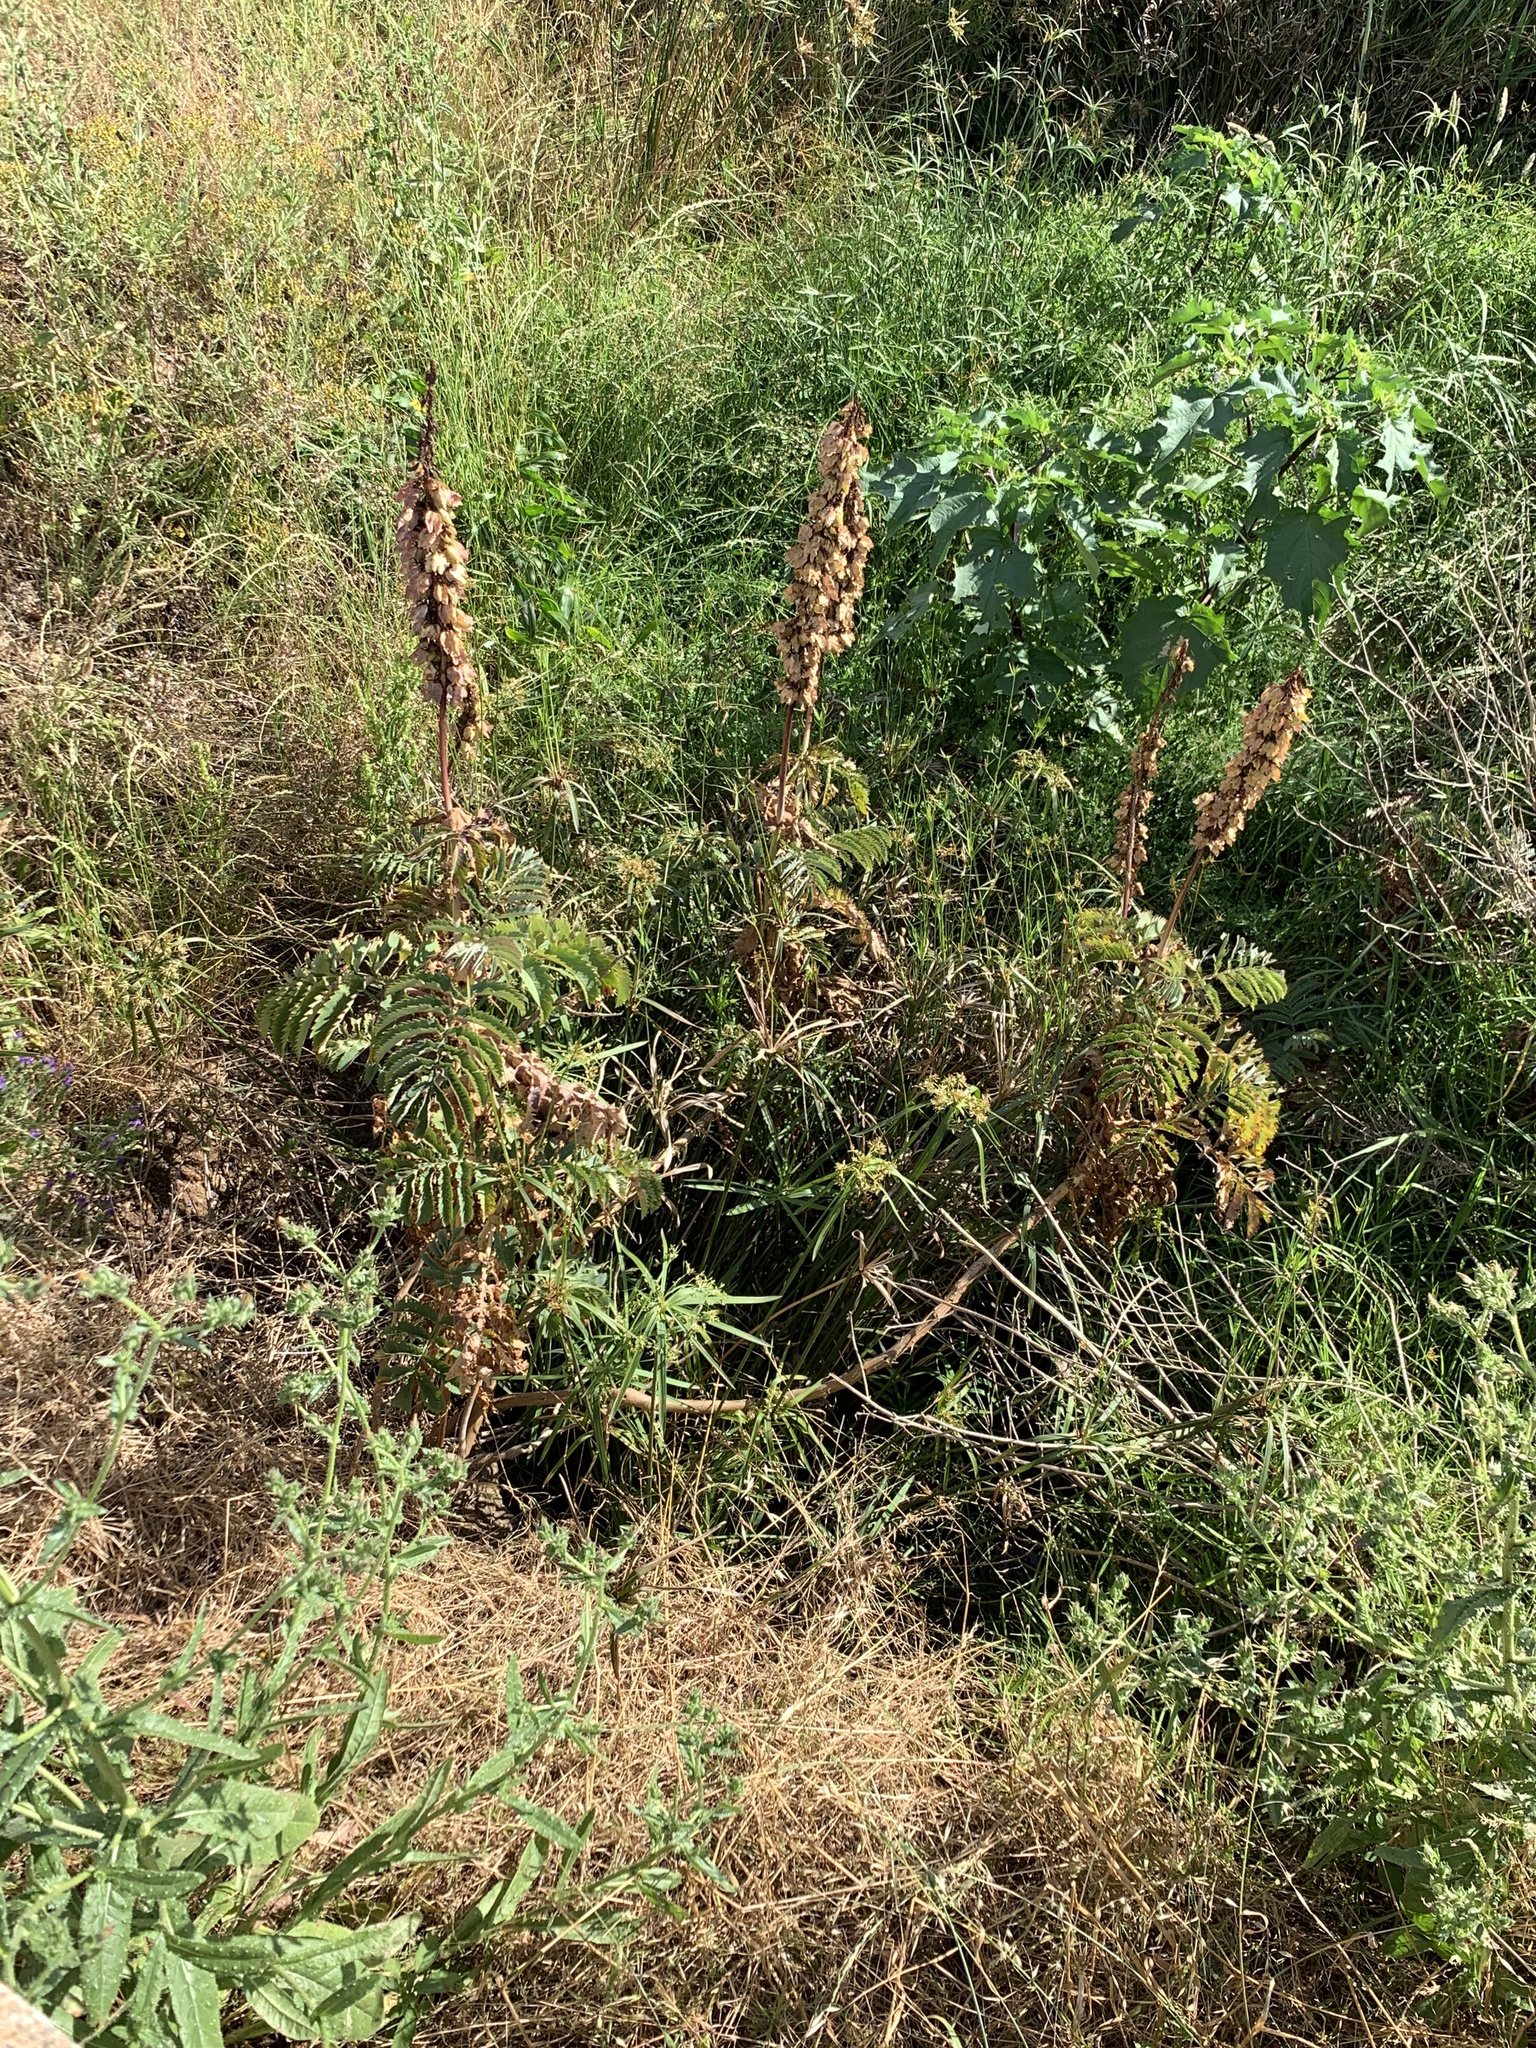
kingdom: Plantae
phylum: Tracheophyta
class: Magnoliopsida
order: Geraniales
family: Melianthaceae
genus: Melianthus
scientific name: Melianthus major
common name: Honey-flower
